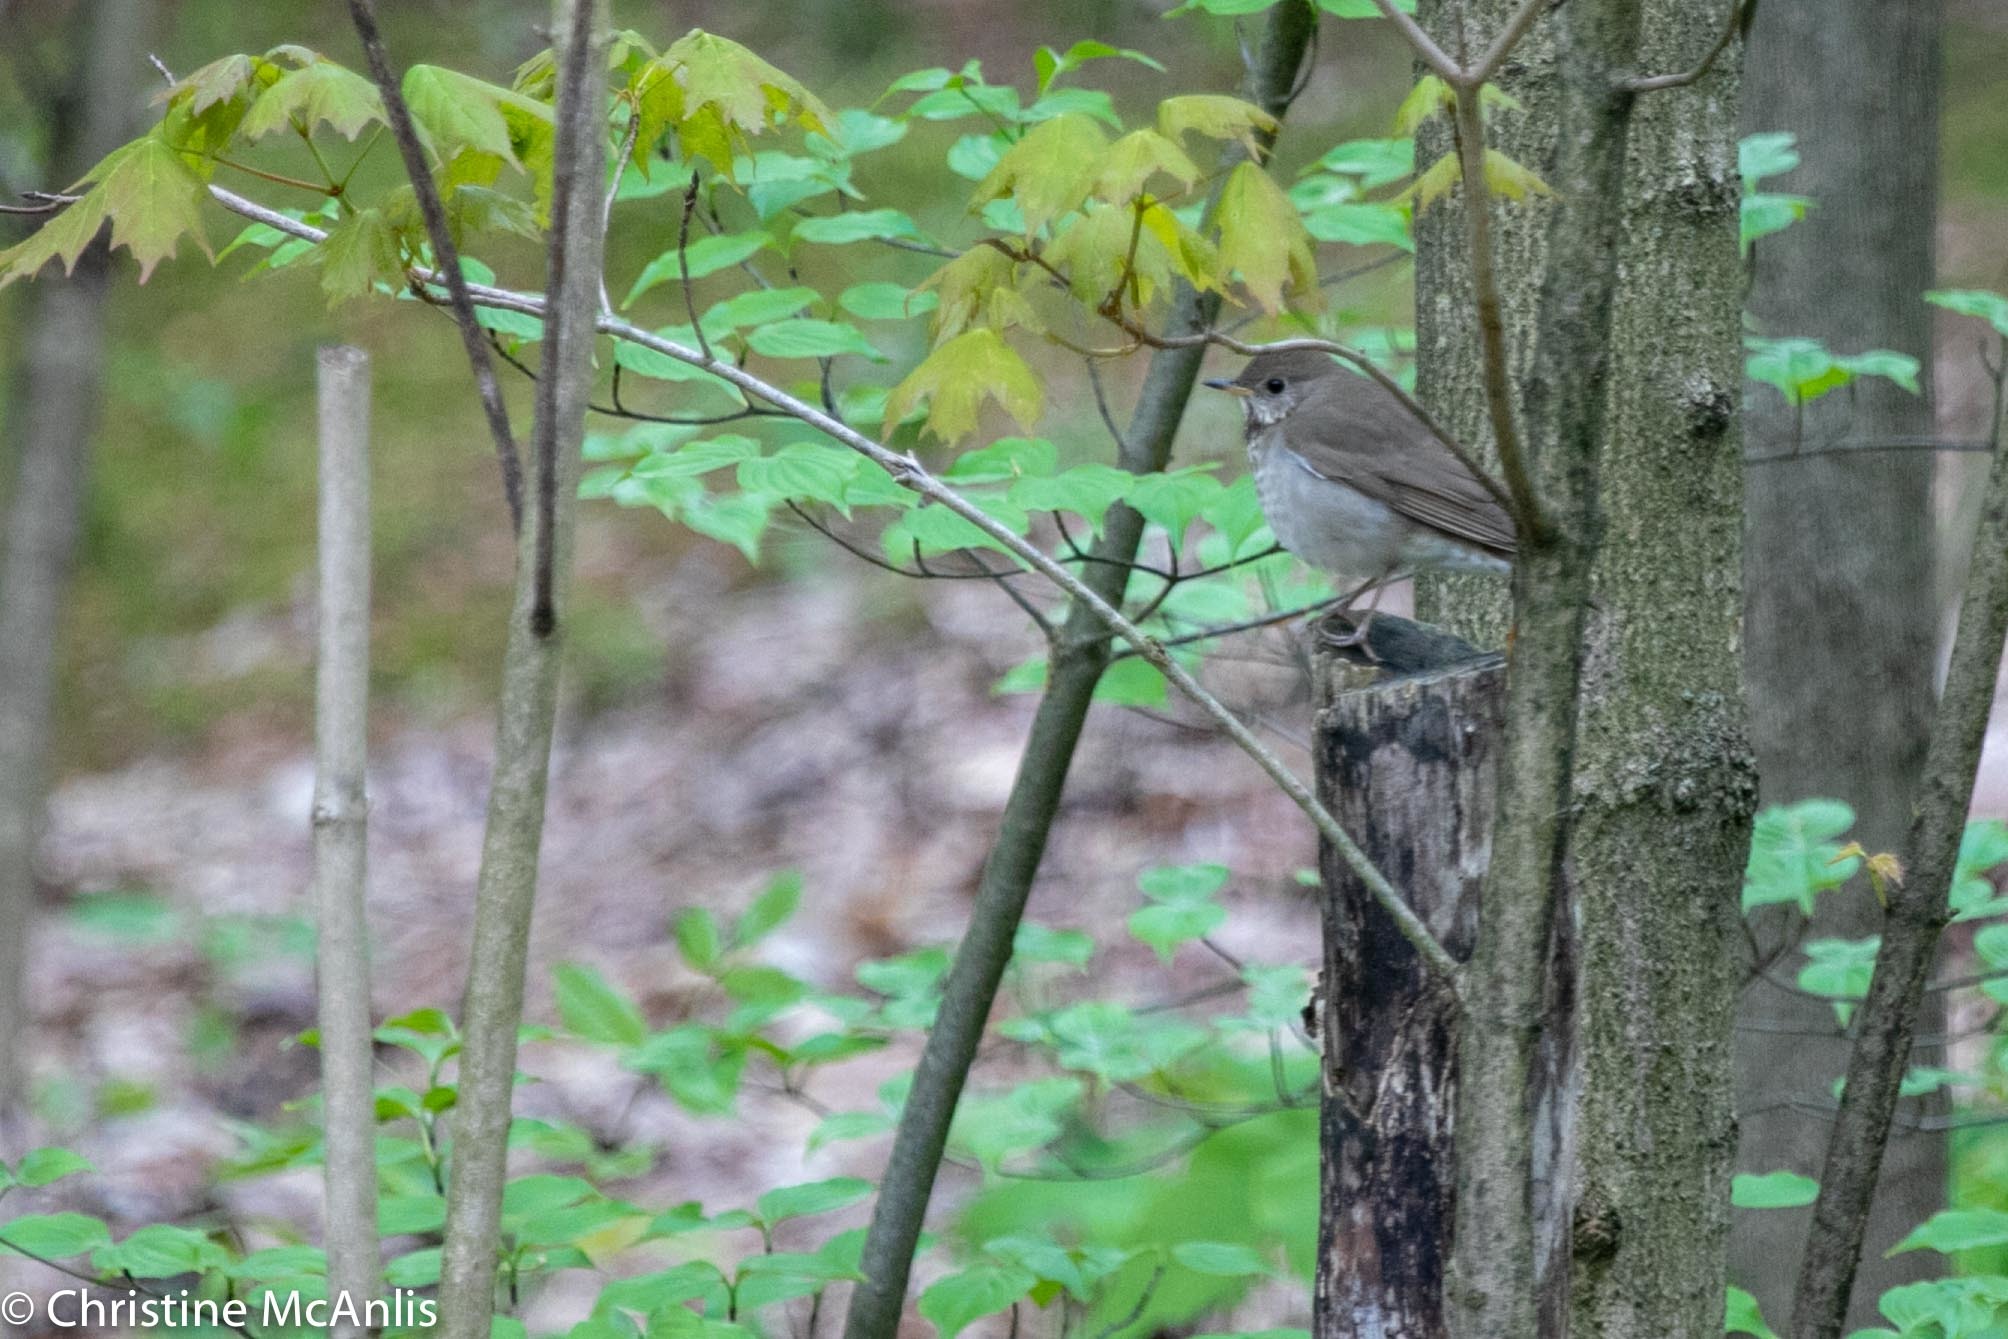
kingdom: Animalia
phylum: Chordata
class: Aves
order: Passeriformes
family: Turdidae
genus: Catharus
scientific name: Catharus minimus
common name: Grey-cheeked thrush
